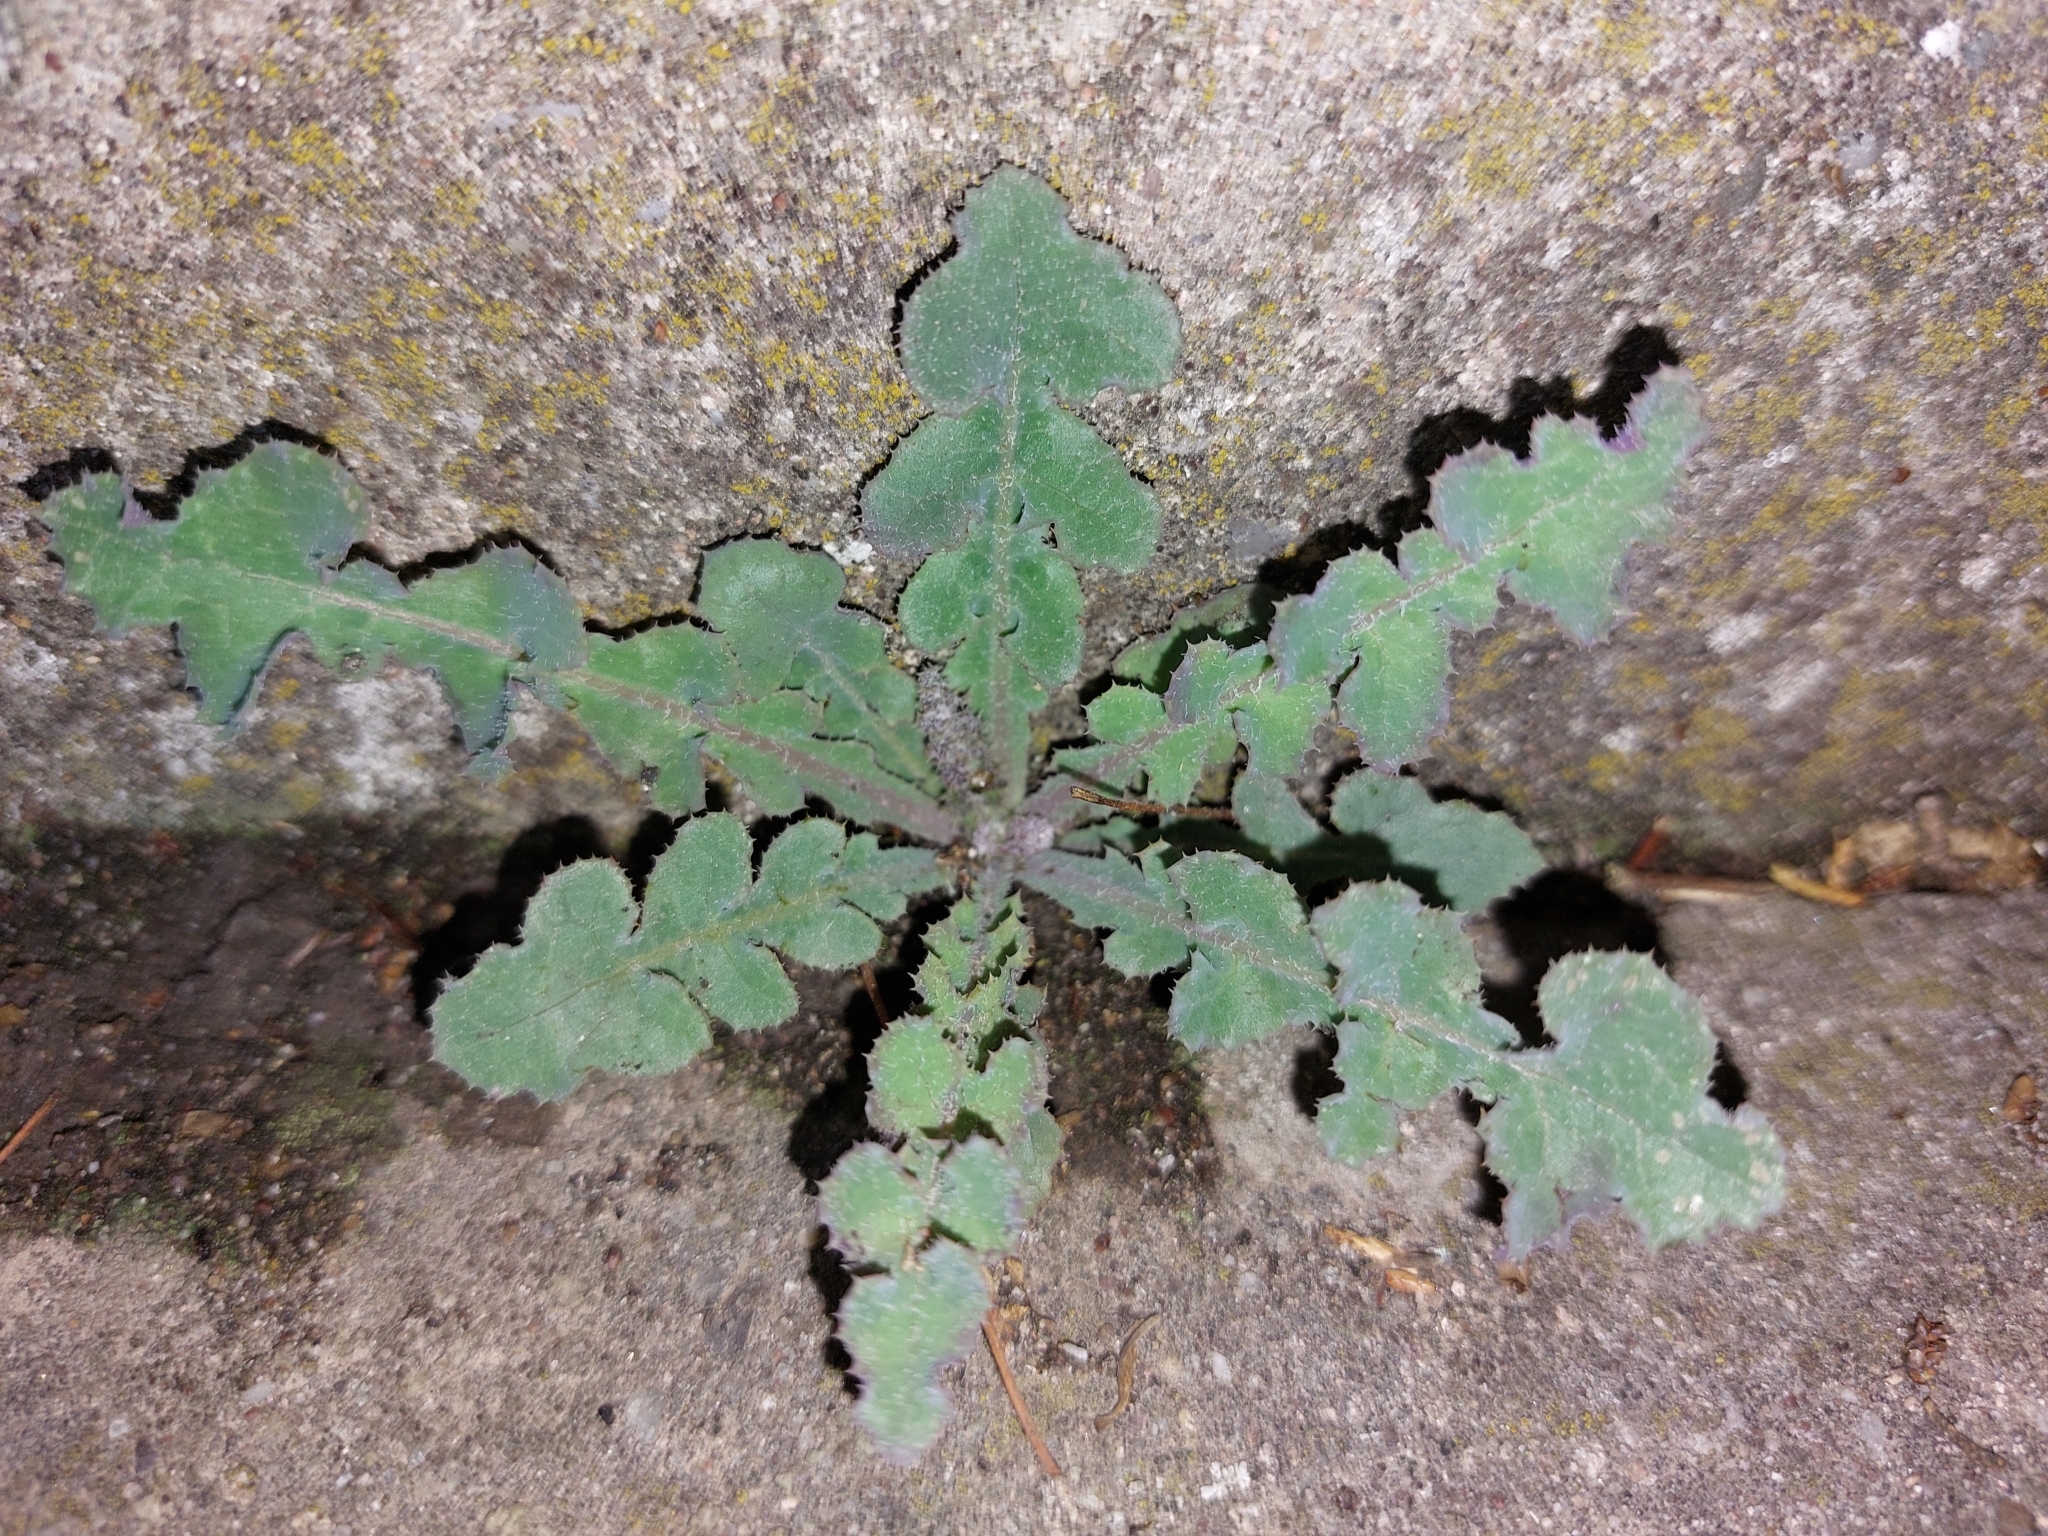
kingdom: Plantae
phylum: Tracheophyta
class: Magnoliopsida
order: Asterales
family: Asteraceae
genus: Sonchus
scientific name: Sonchus oleraceus
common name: Common sowthistle
